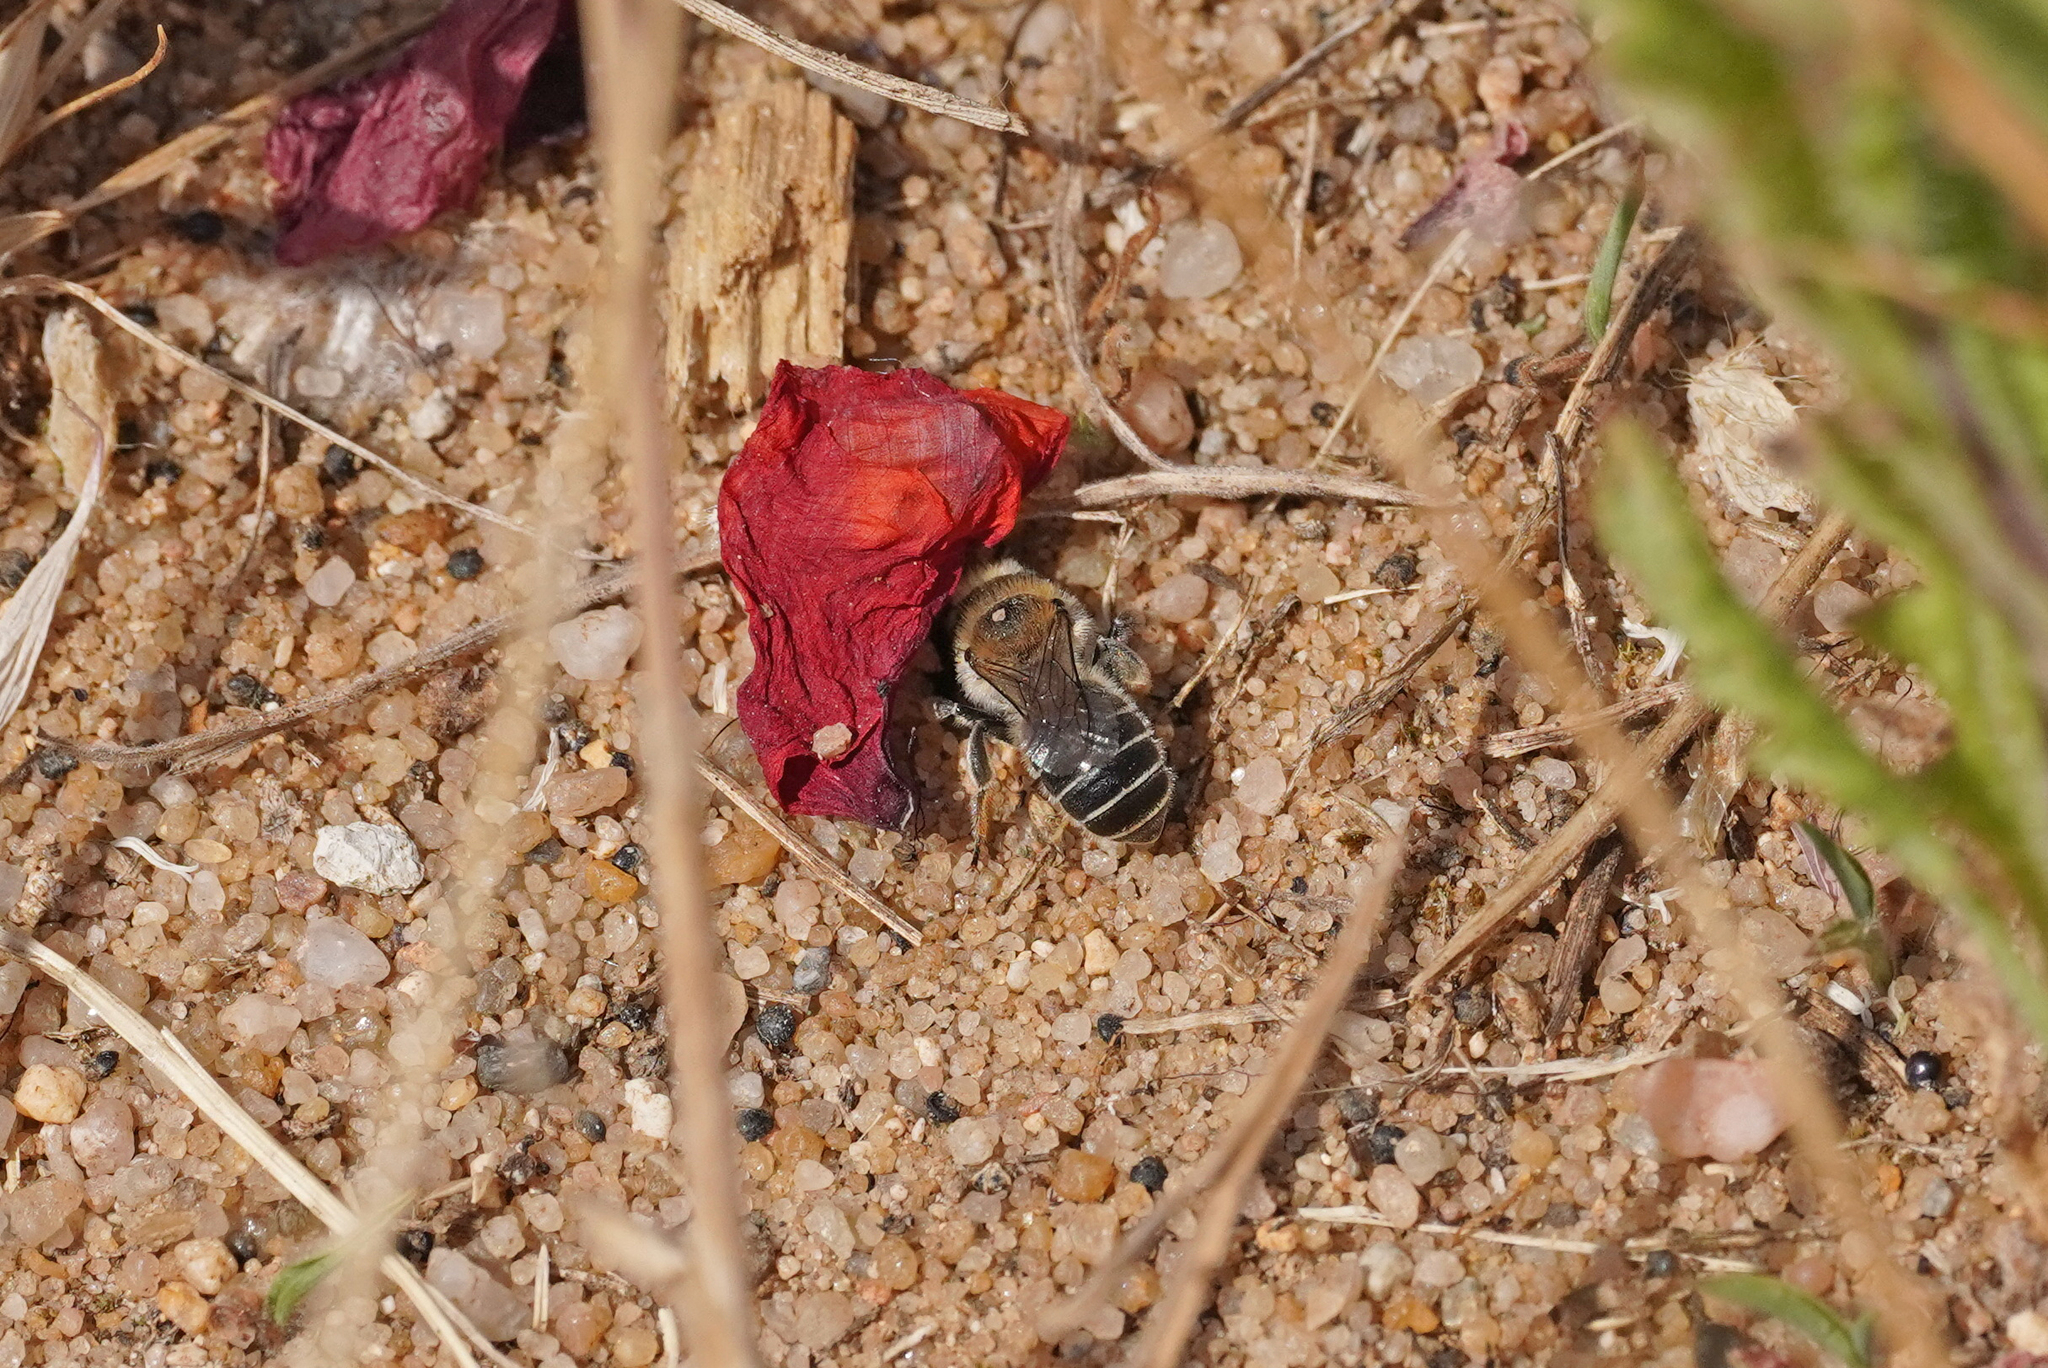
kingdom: Animalia
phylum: Arthropoda
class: Insecta
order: Hymenoptera
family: Megachilidae
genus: Hoplitis
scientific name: Hoplitis papaveris
